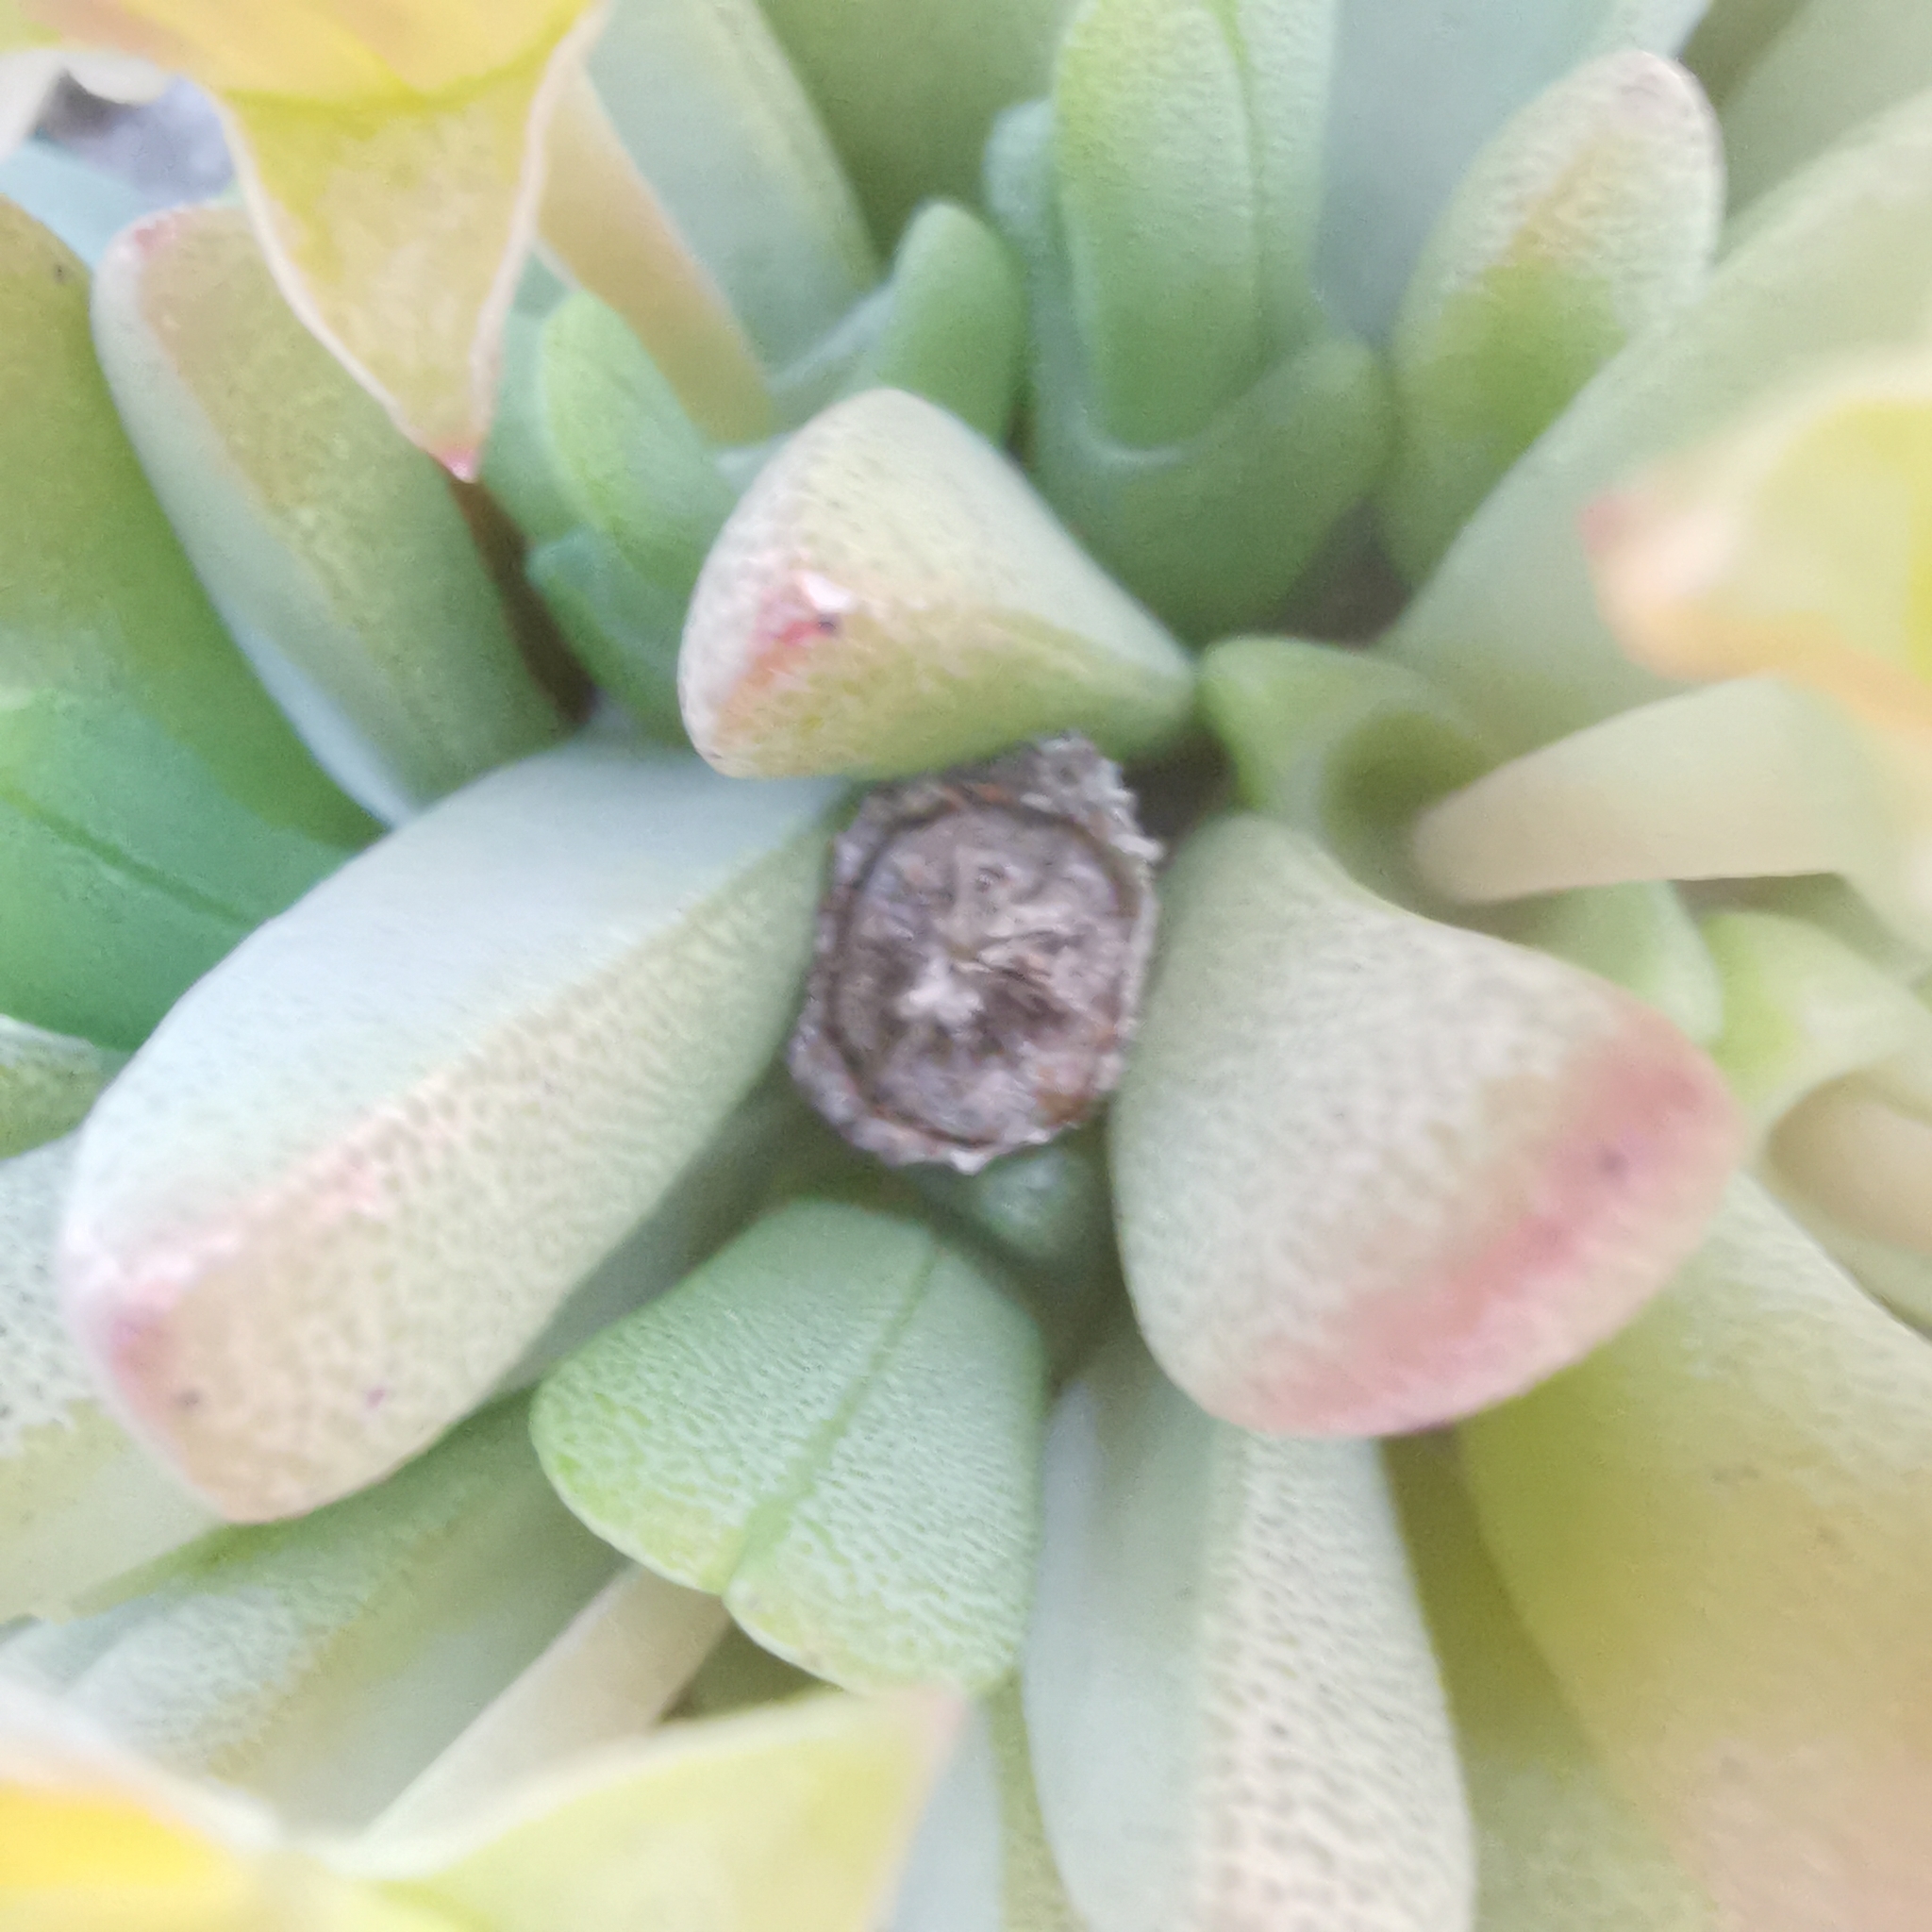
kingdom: Plantae
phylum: Tracheophyta
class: Magnoliopsida
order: Caryophyllales
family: Aizoaceae
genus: Cheiridopsis
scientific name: Cheiridopsis namaquensis
